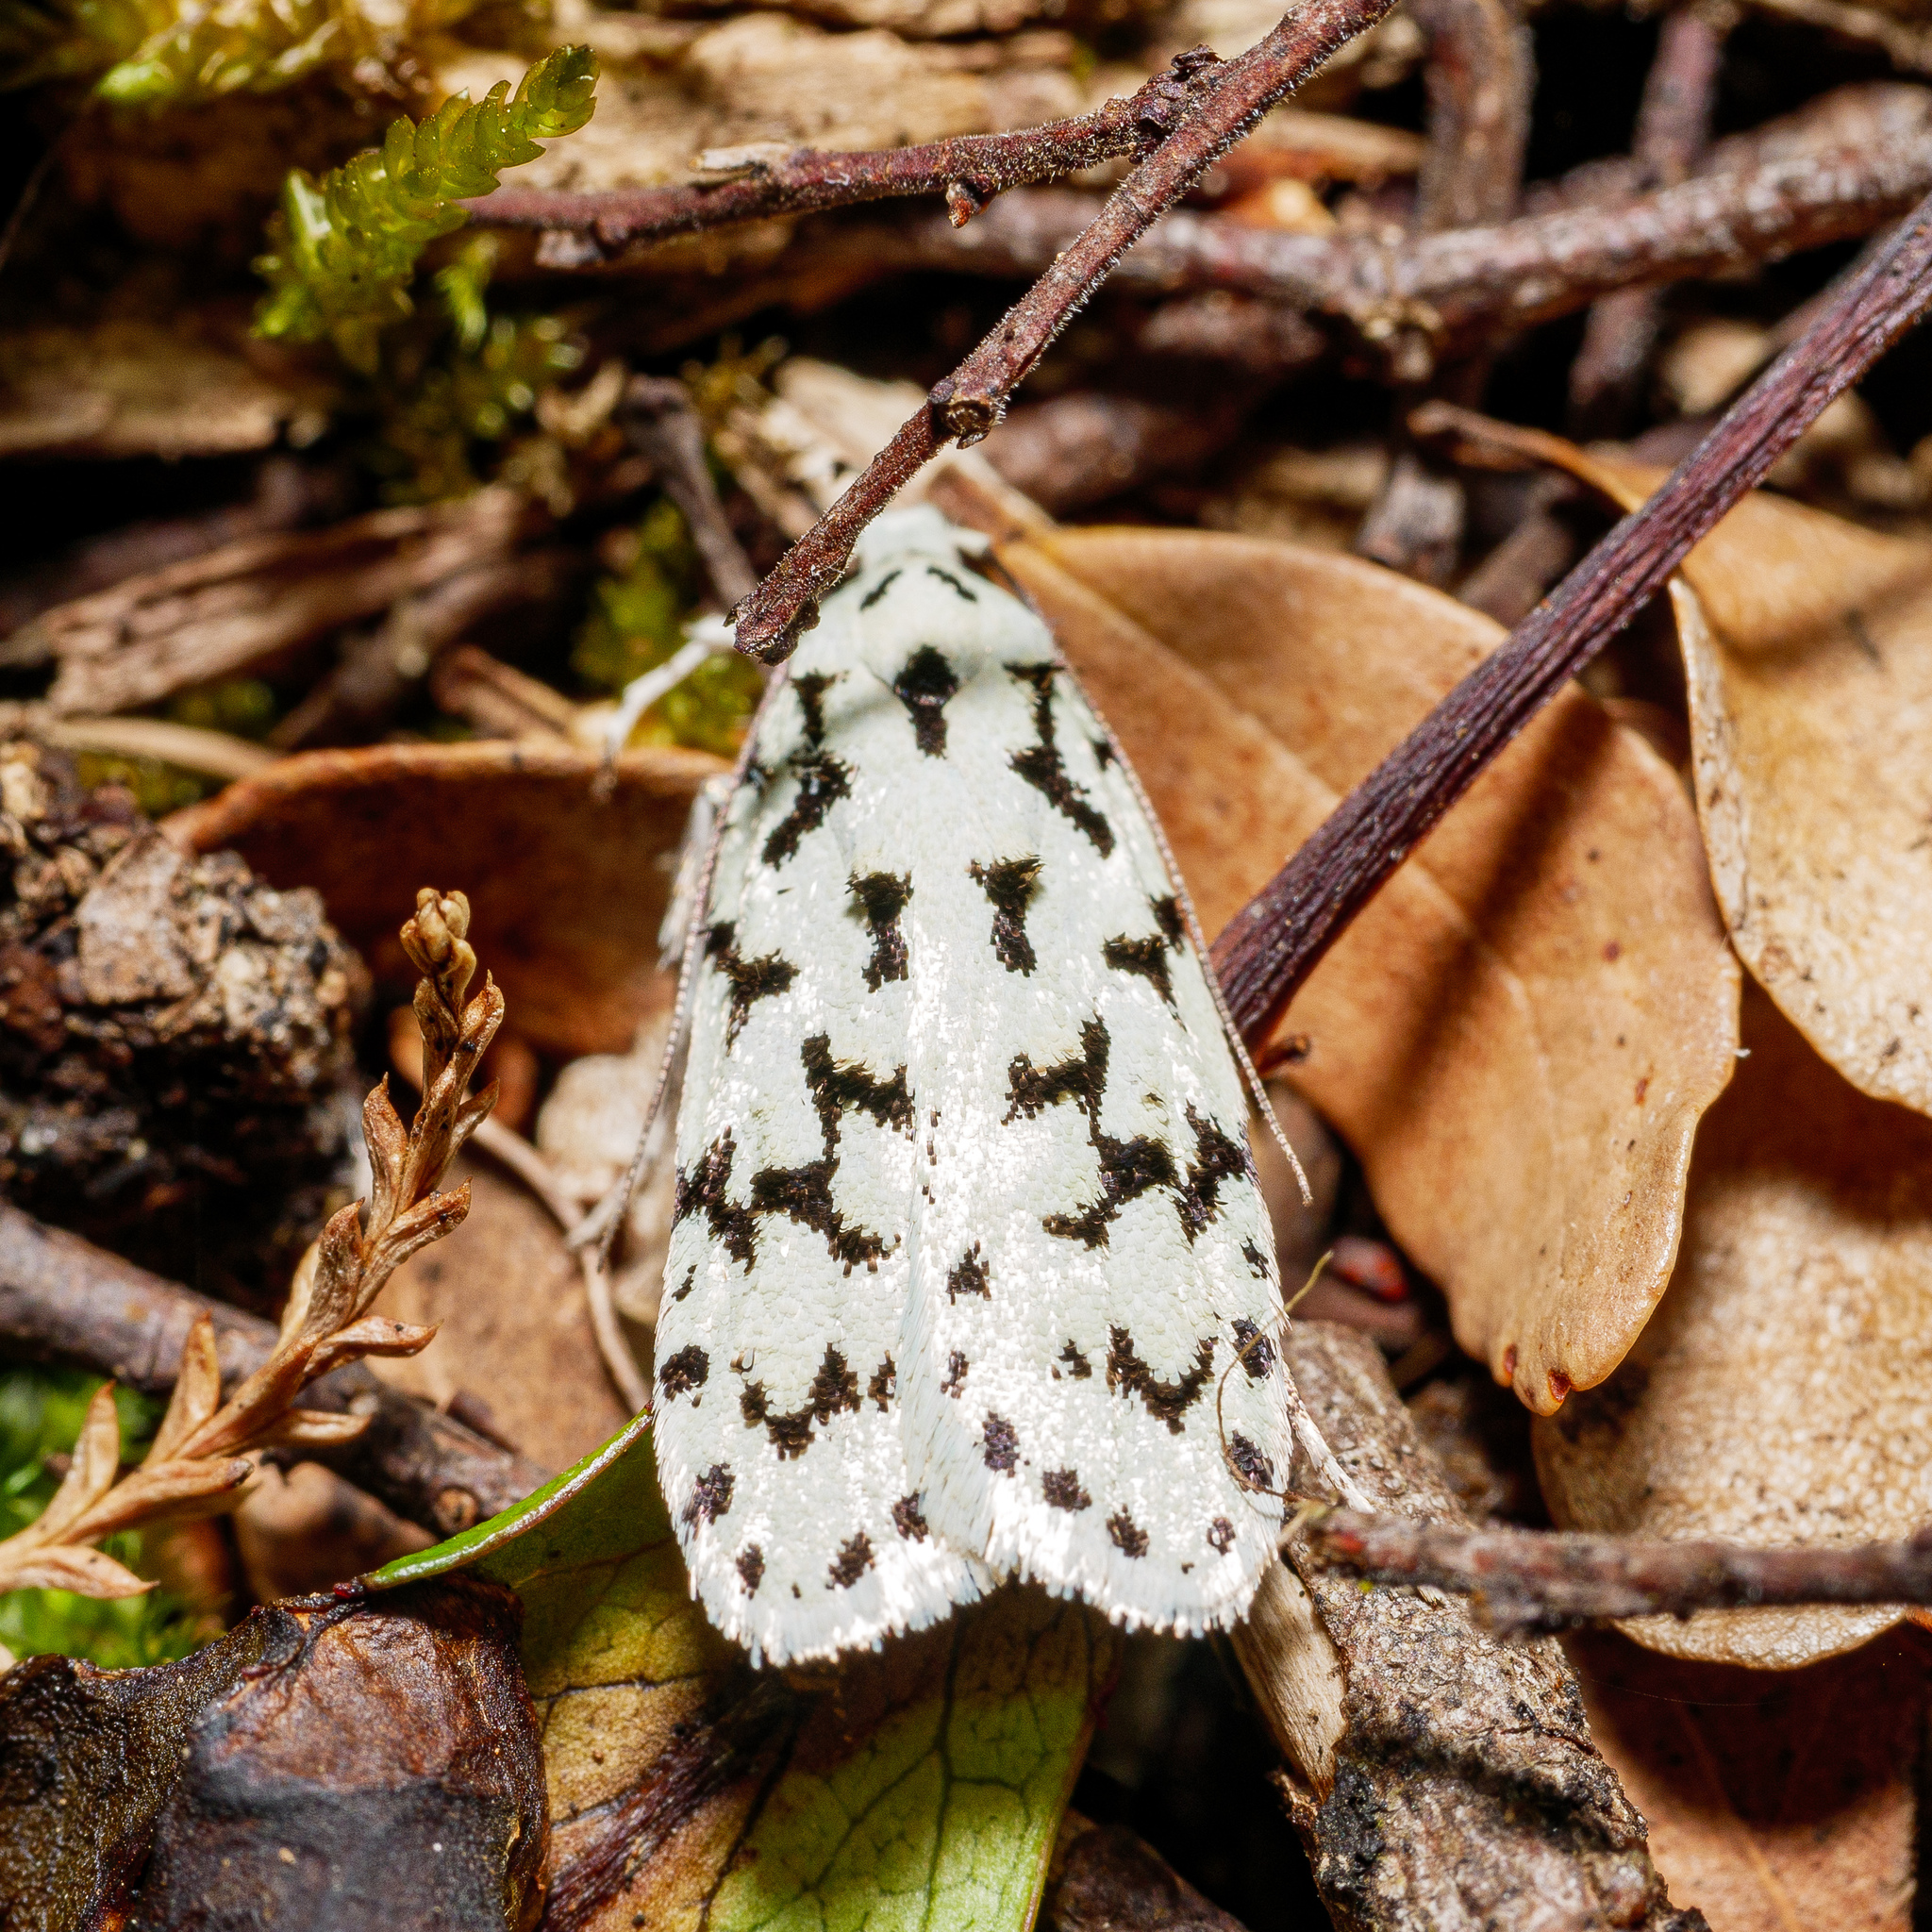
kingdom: Animalia
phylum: Arthropoda
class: Insecta
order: Lepidoptera
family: Oecophoridae
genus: Izatha
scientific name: Izatha huttoni
